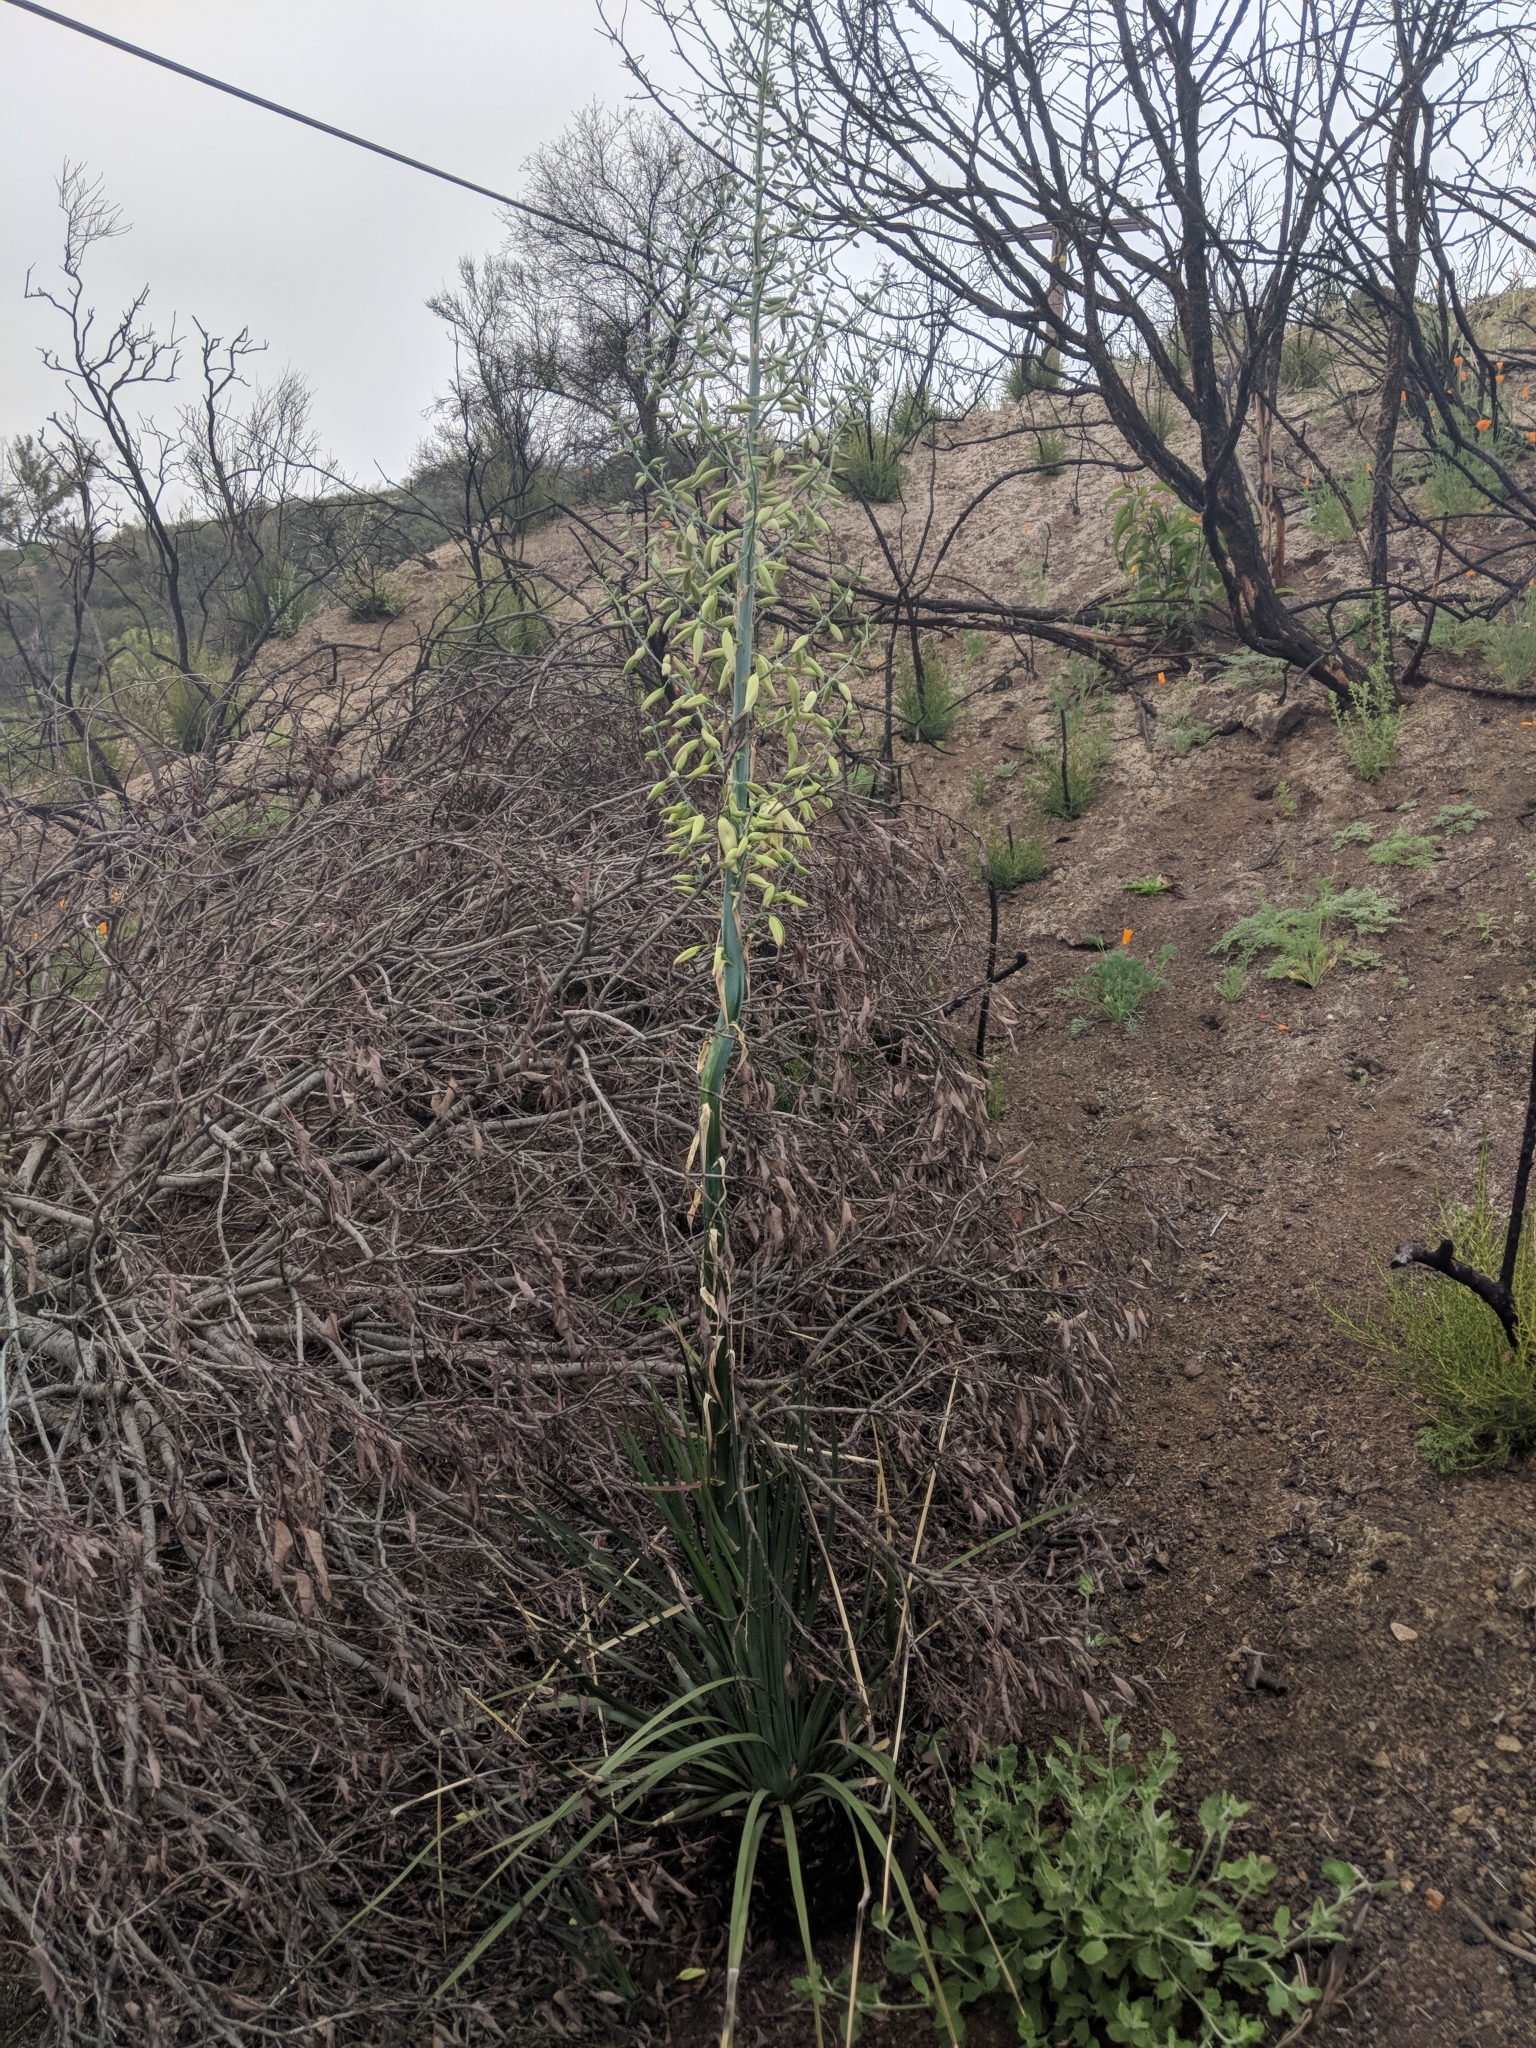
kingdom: Plantae
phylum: Tracheophyta
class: Liliopsida
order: Asparagales
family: Asparagaceae
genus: Hesperoyucca
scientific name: Hesperoyucca whipplei
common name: Our lord's-candle
